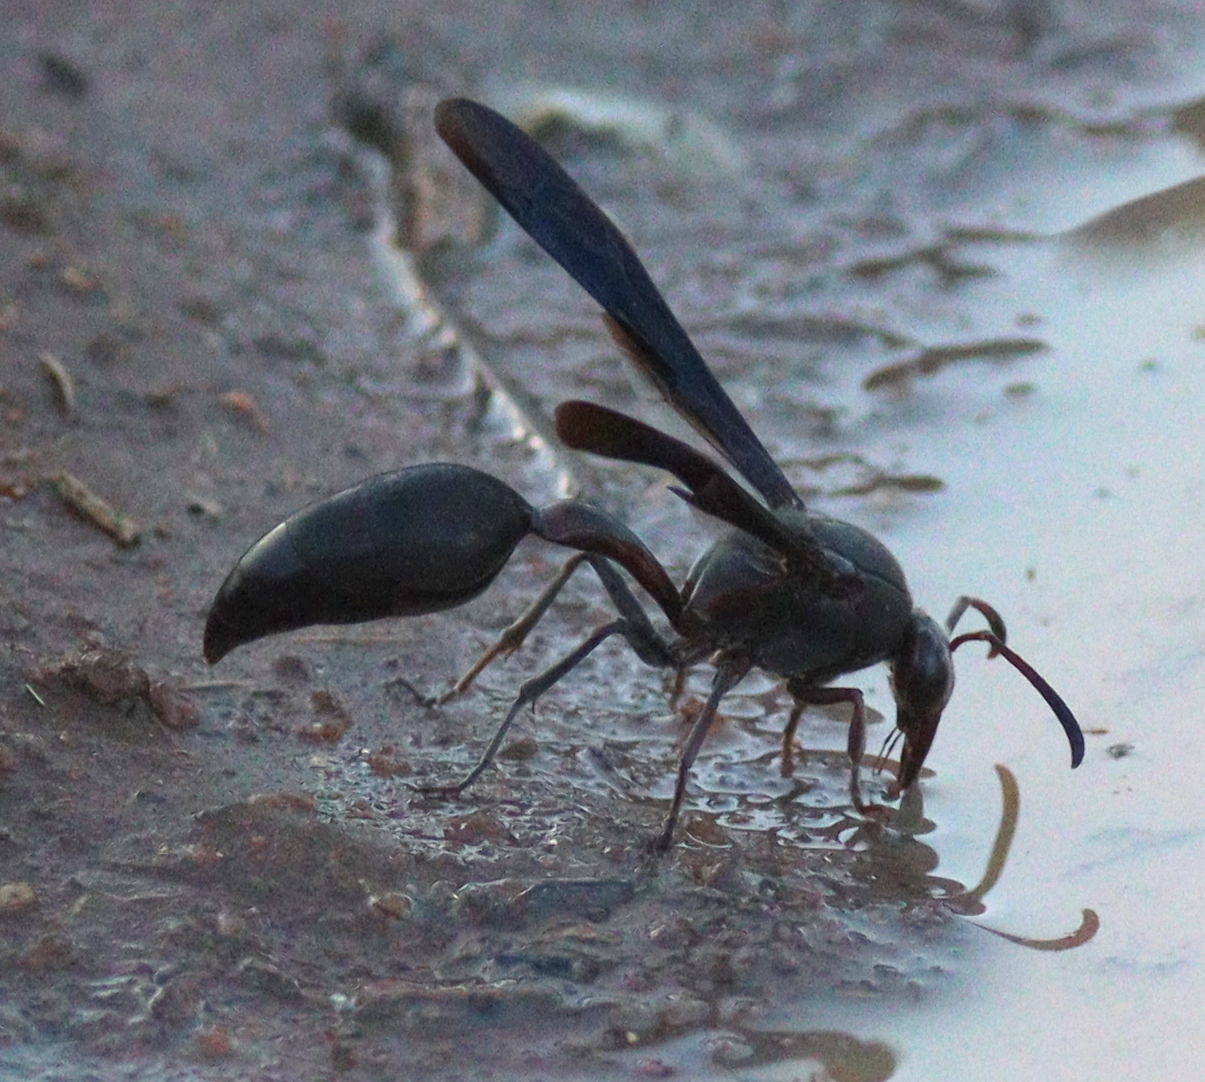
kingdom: Animalia
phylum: Arthropoda
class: Insecta
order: Hymenoptera
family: Eumenidae
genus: Delta
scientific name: Delta emarginatum
